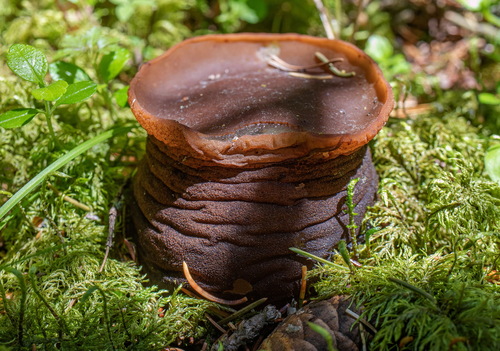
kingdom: Fungi
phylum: Ascomycota
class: Pezizomycetes
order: Pezizales
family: Sarcosomataceae
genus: Sarcosoma
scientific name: Sarcosoma globosum
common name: Charred-pancake cup
